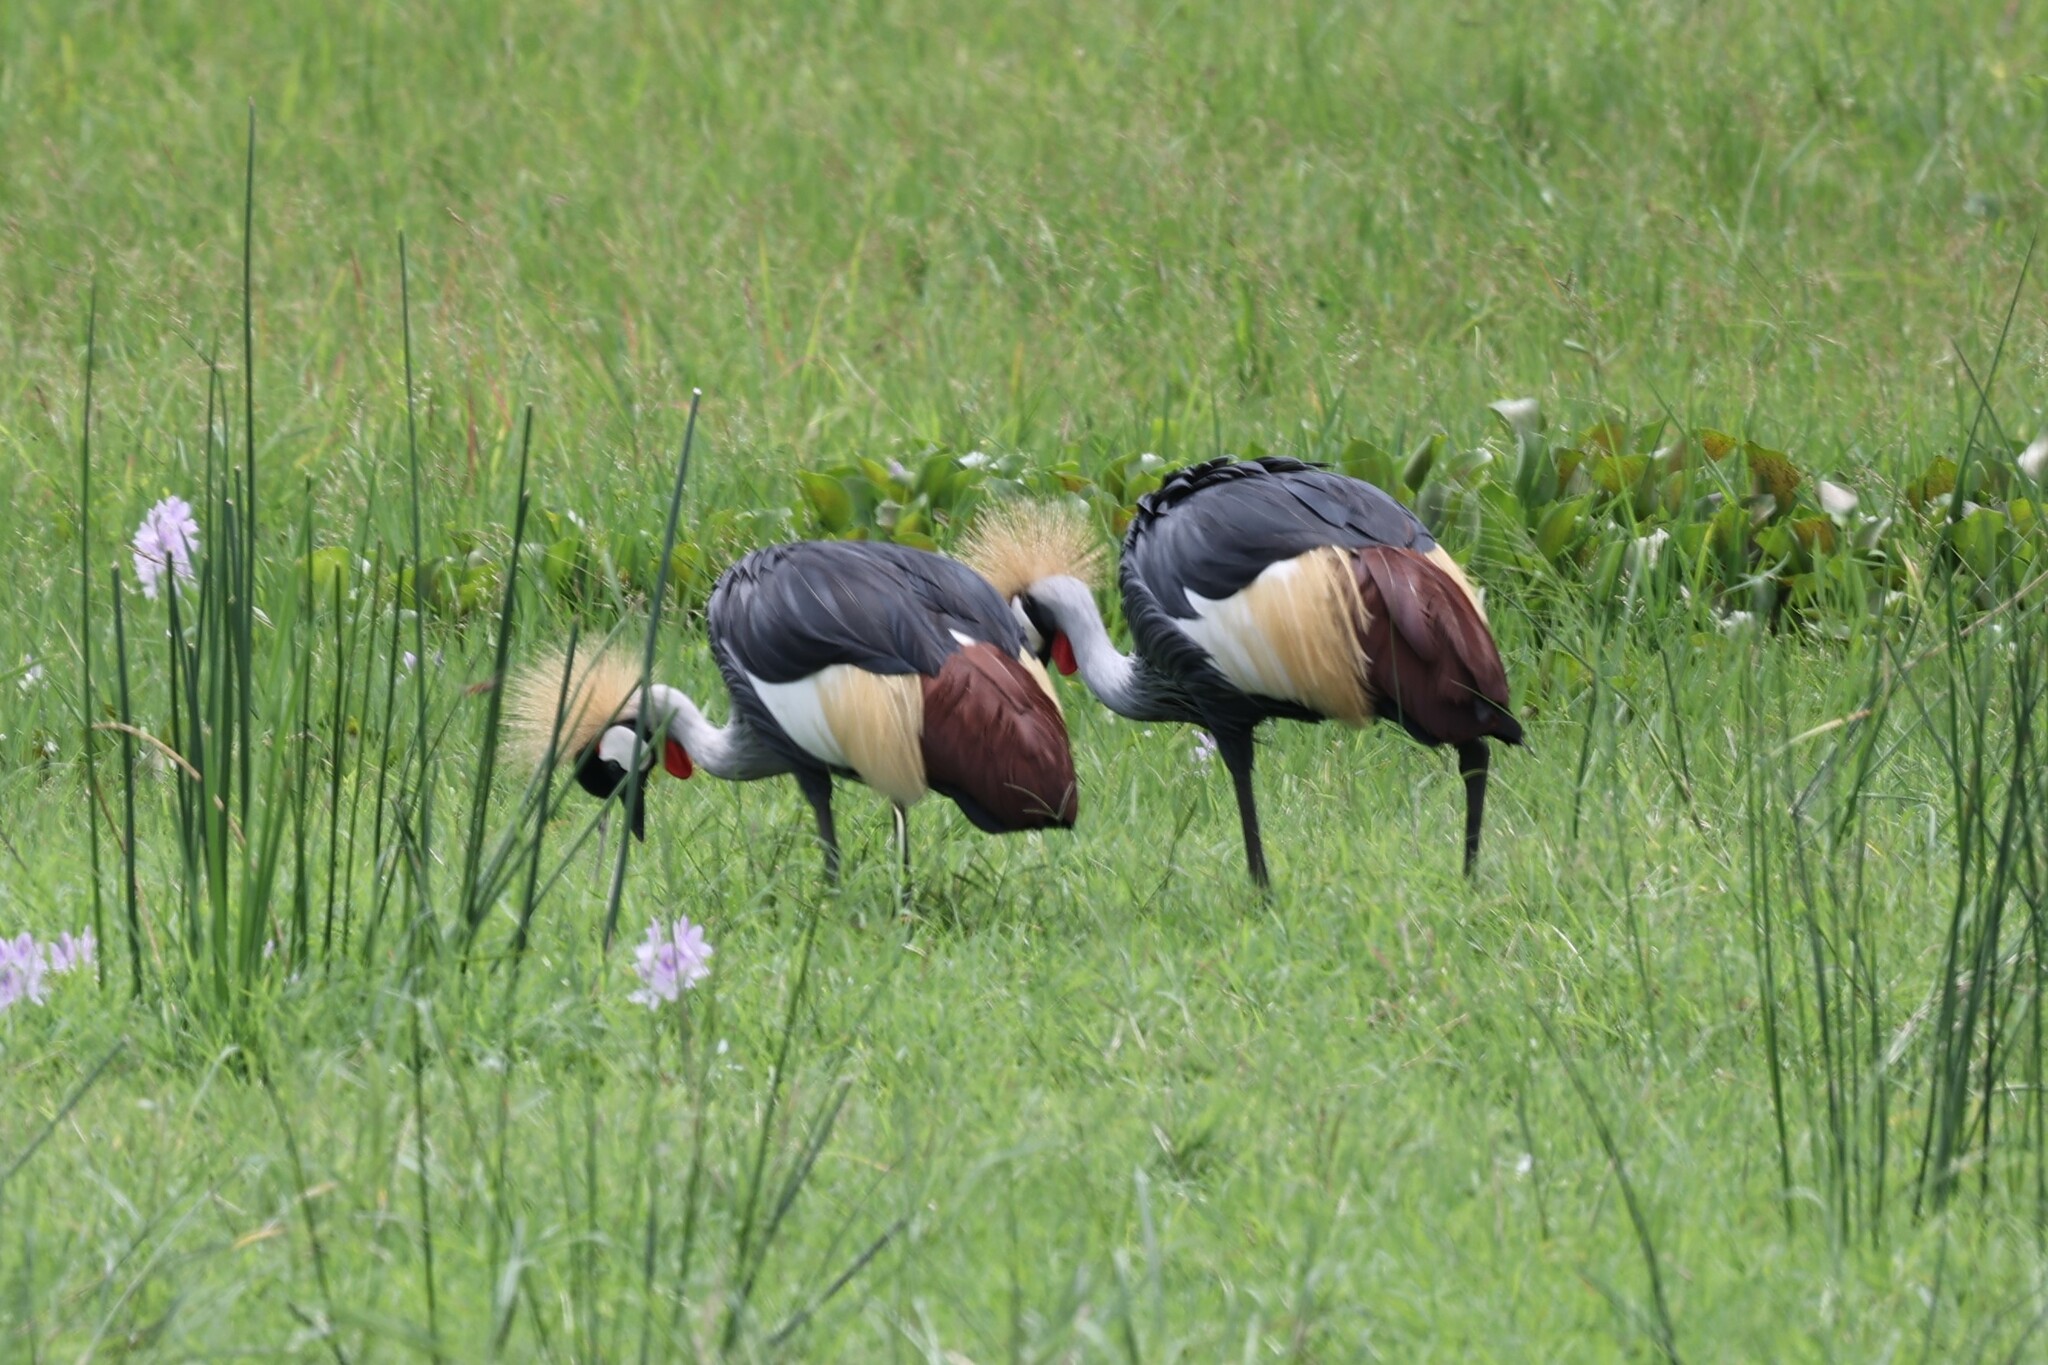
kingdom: Animalia
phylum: Chordata
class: Aves
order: Gruiformes
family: Gruidae
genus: Balearica
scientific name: Balearica regulorum
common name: Grey crowned crane
